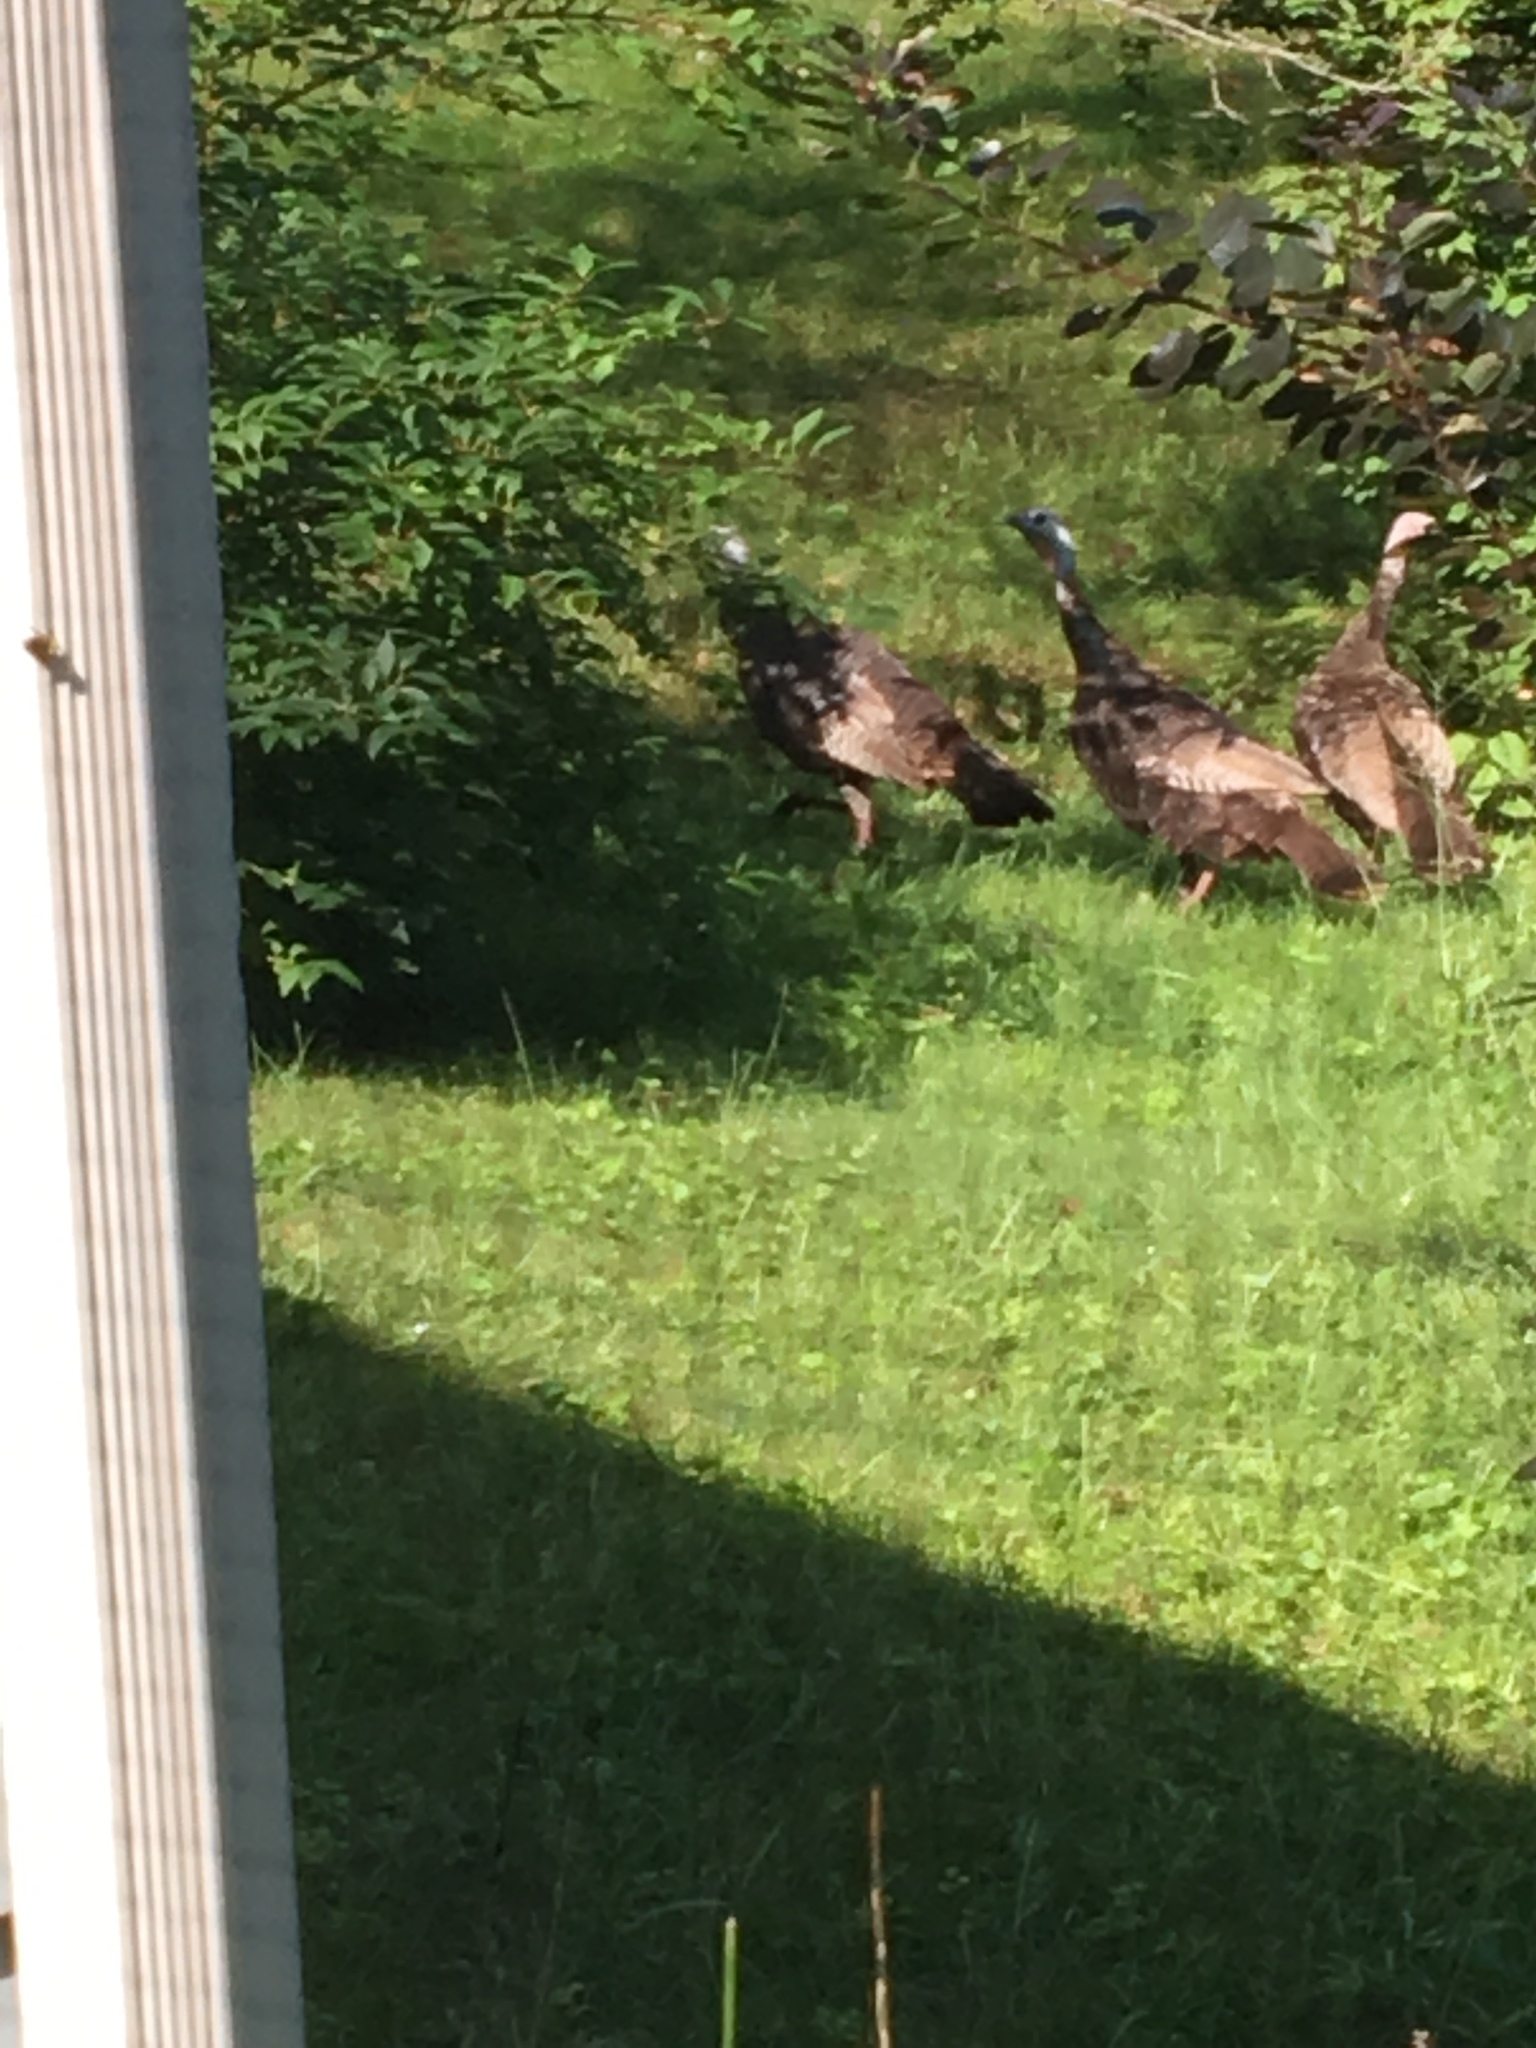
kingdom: Animalia
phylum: Chordata
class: Aves
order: Galliformes
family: Phasianidae
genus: Meleagris
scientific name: Meleagris gallopavo
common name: Wild turkey
